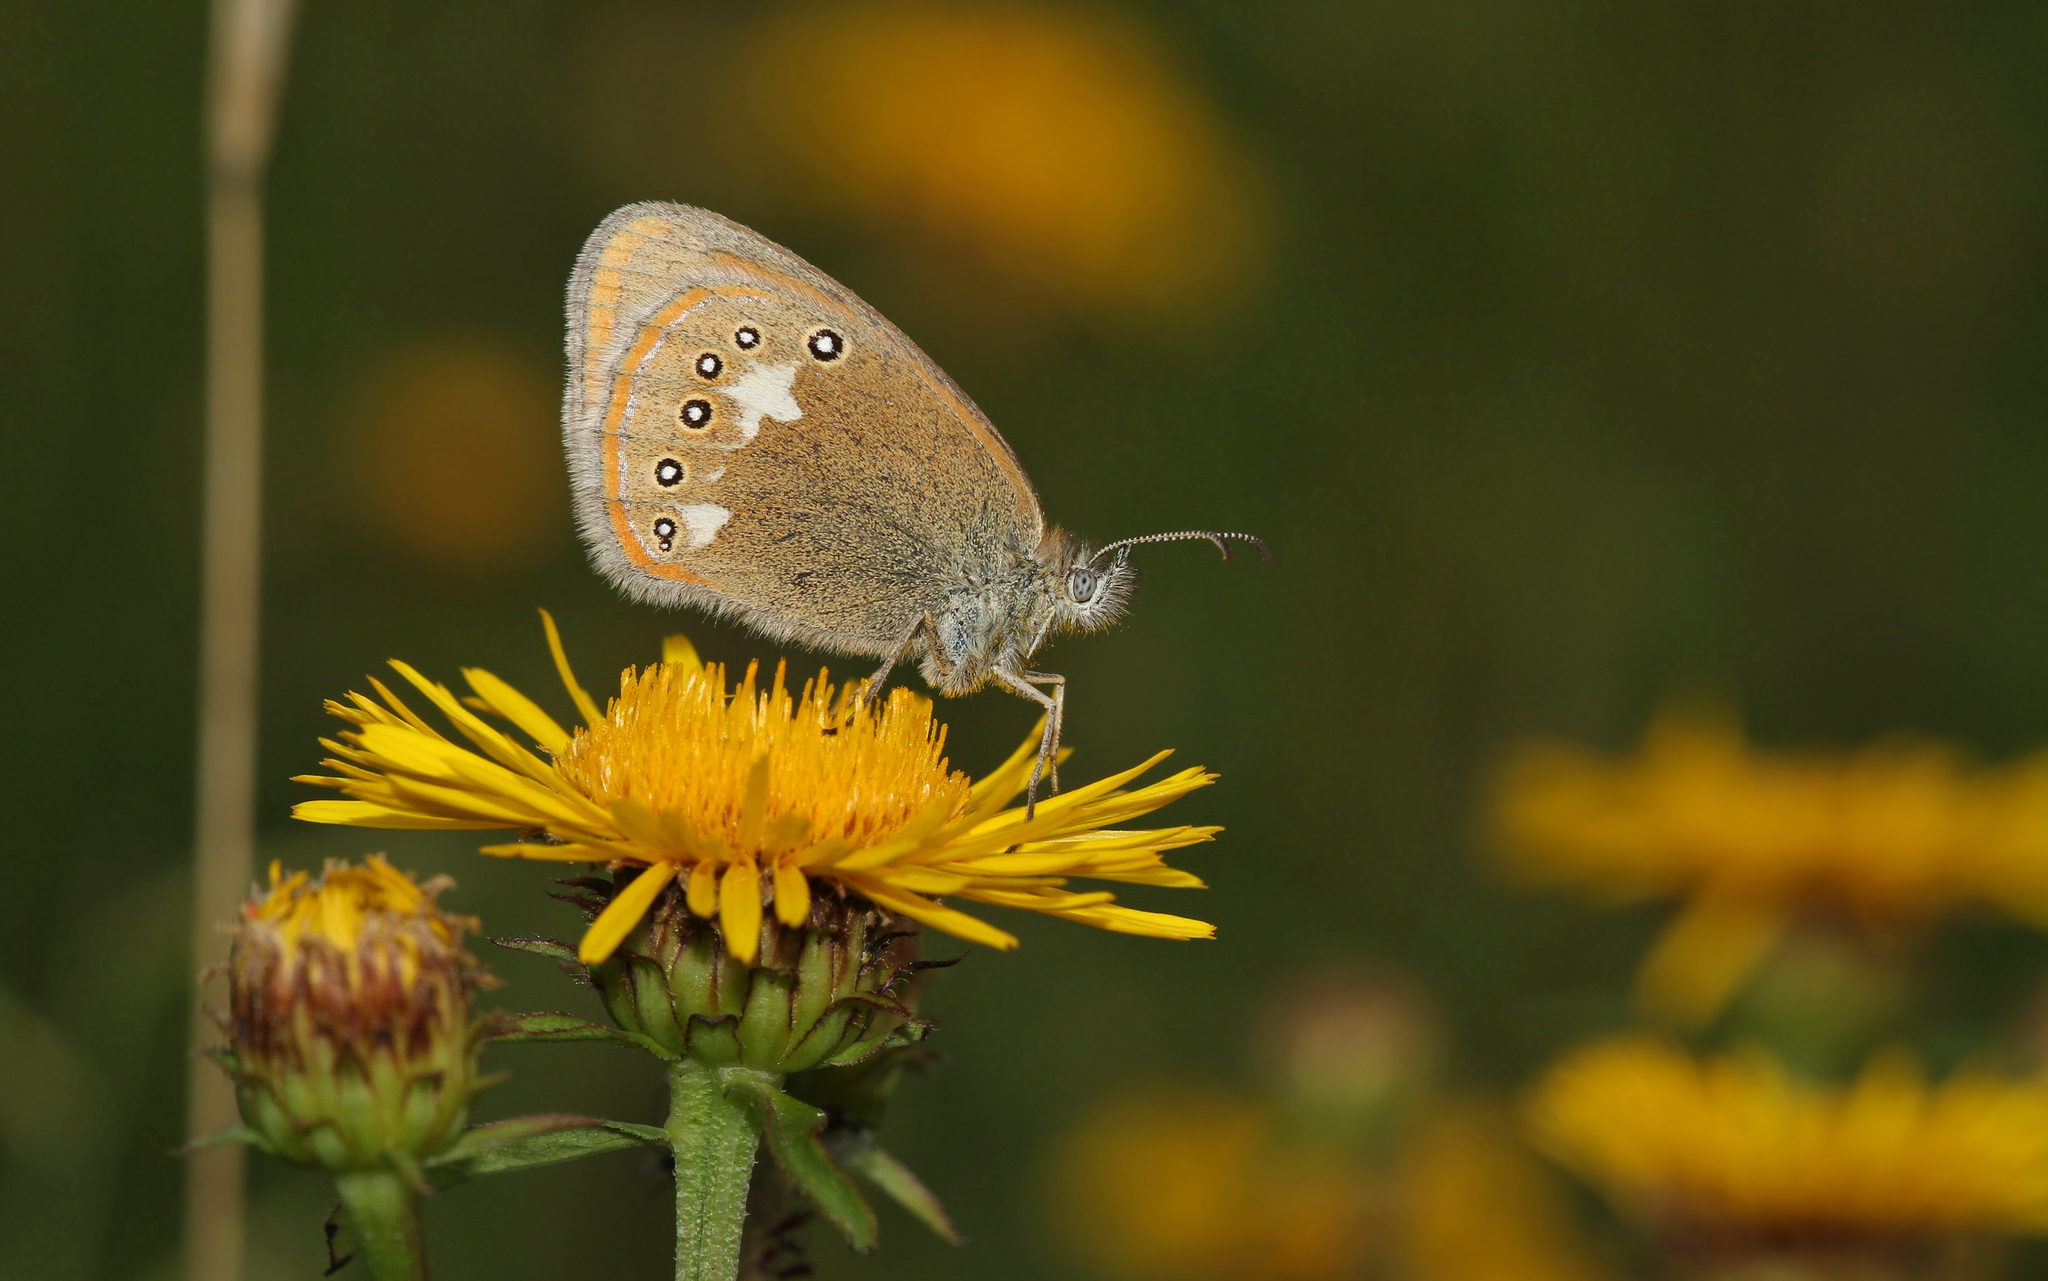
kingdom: Animalia
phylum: Arthropoda
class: Insecta
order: Lepidoptera
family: Nymphalidae
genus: Coenonympha
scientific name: Coenonympha iphis
